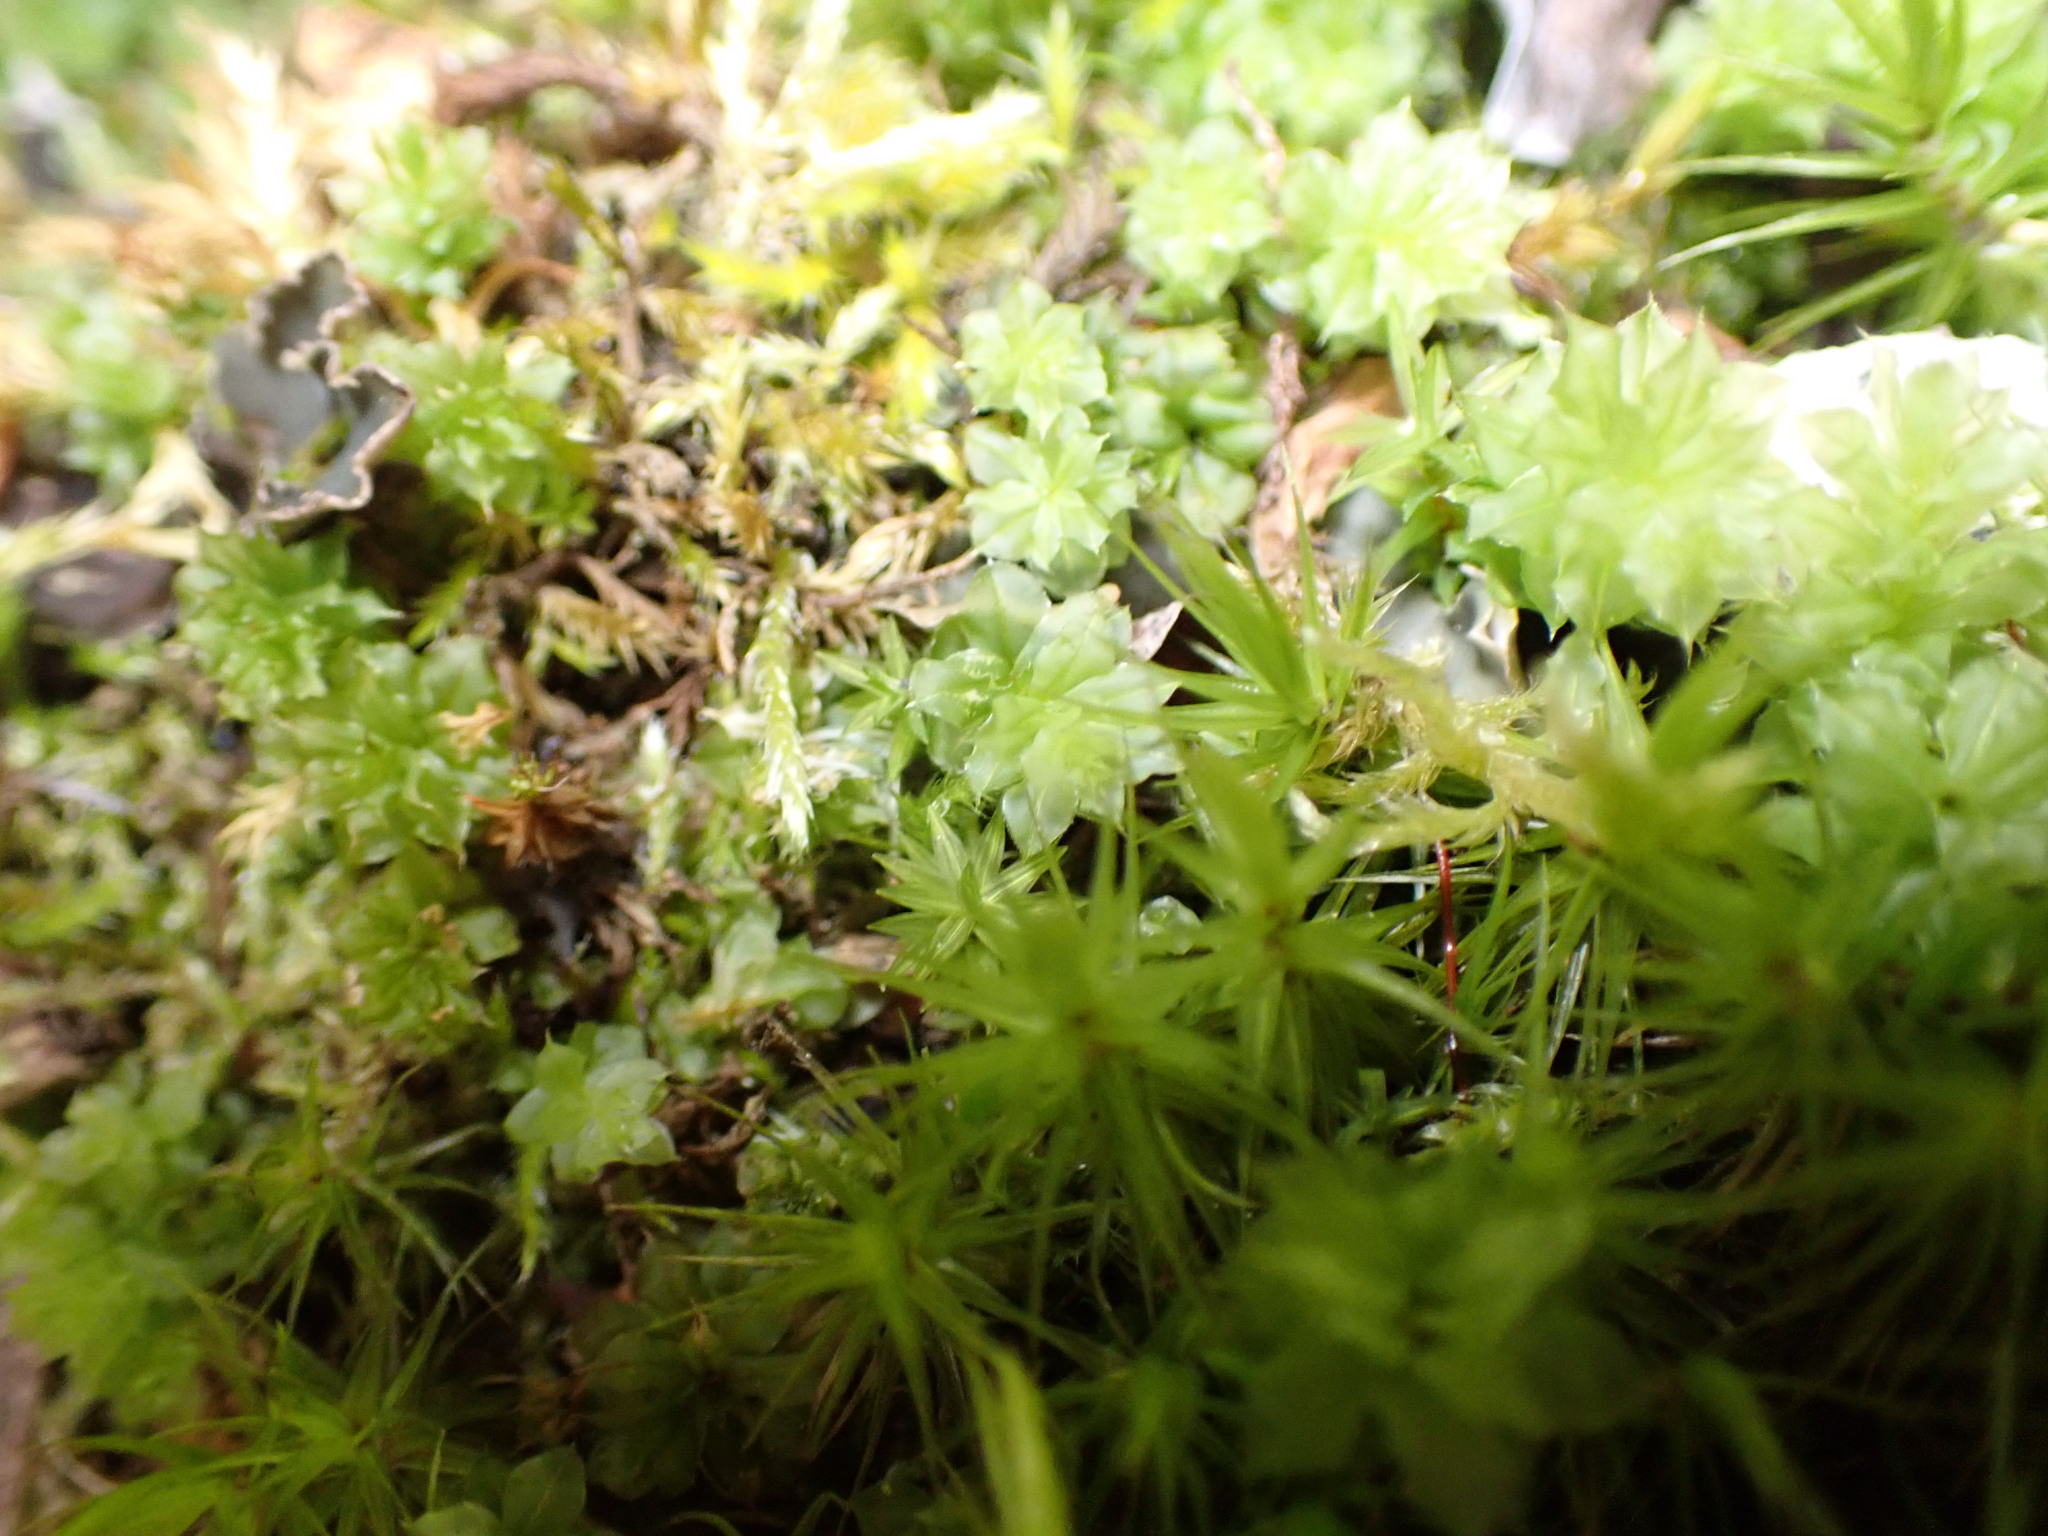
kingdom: Plantae
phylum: Bryophyta
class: Bryopsida
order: Bryales
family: Mniaceae
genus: Plagiomnium
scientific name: Plagiomnium venustum
